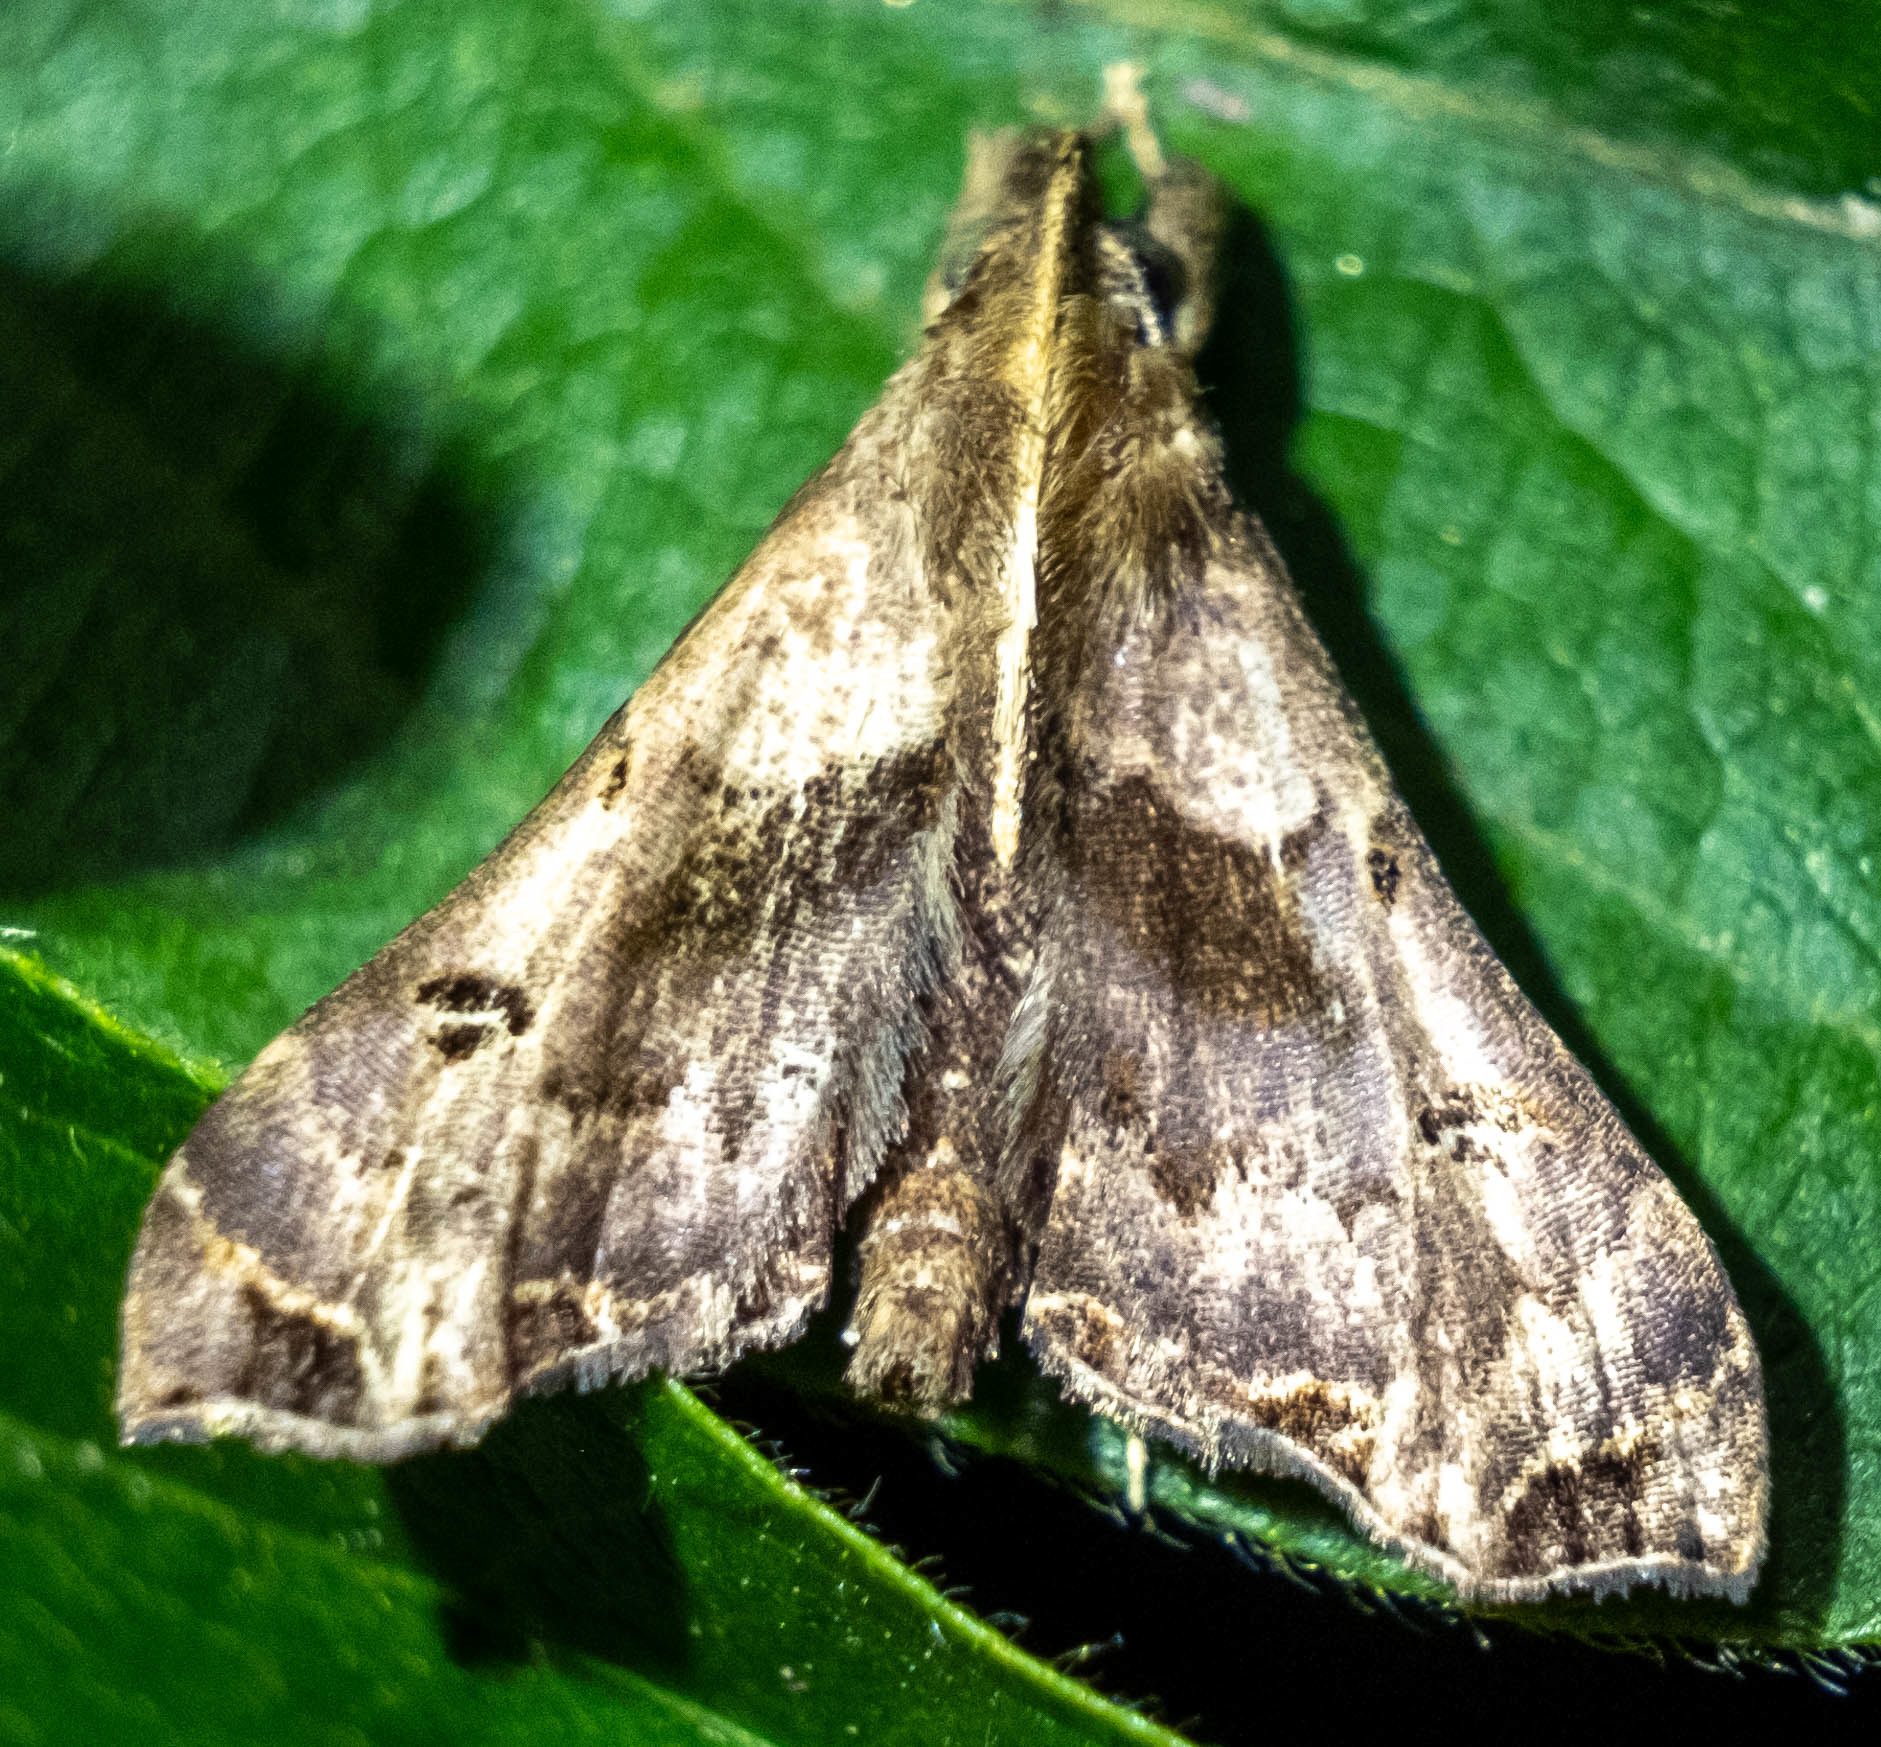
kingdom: Animalia
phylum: Arthropoda
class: Insecta
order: Lepidoptera
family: Erebidae
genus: Palthis
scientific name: Palthis asopialis
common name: Faint-spotted palthis moth
